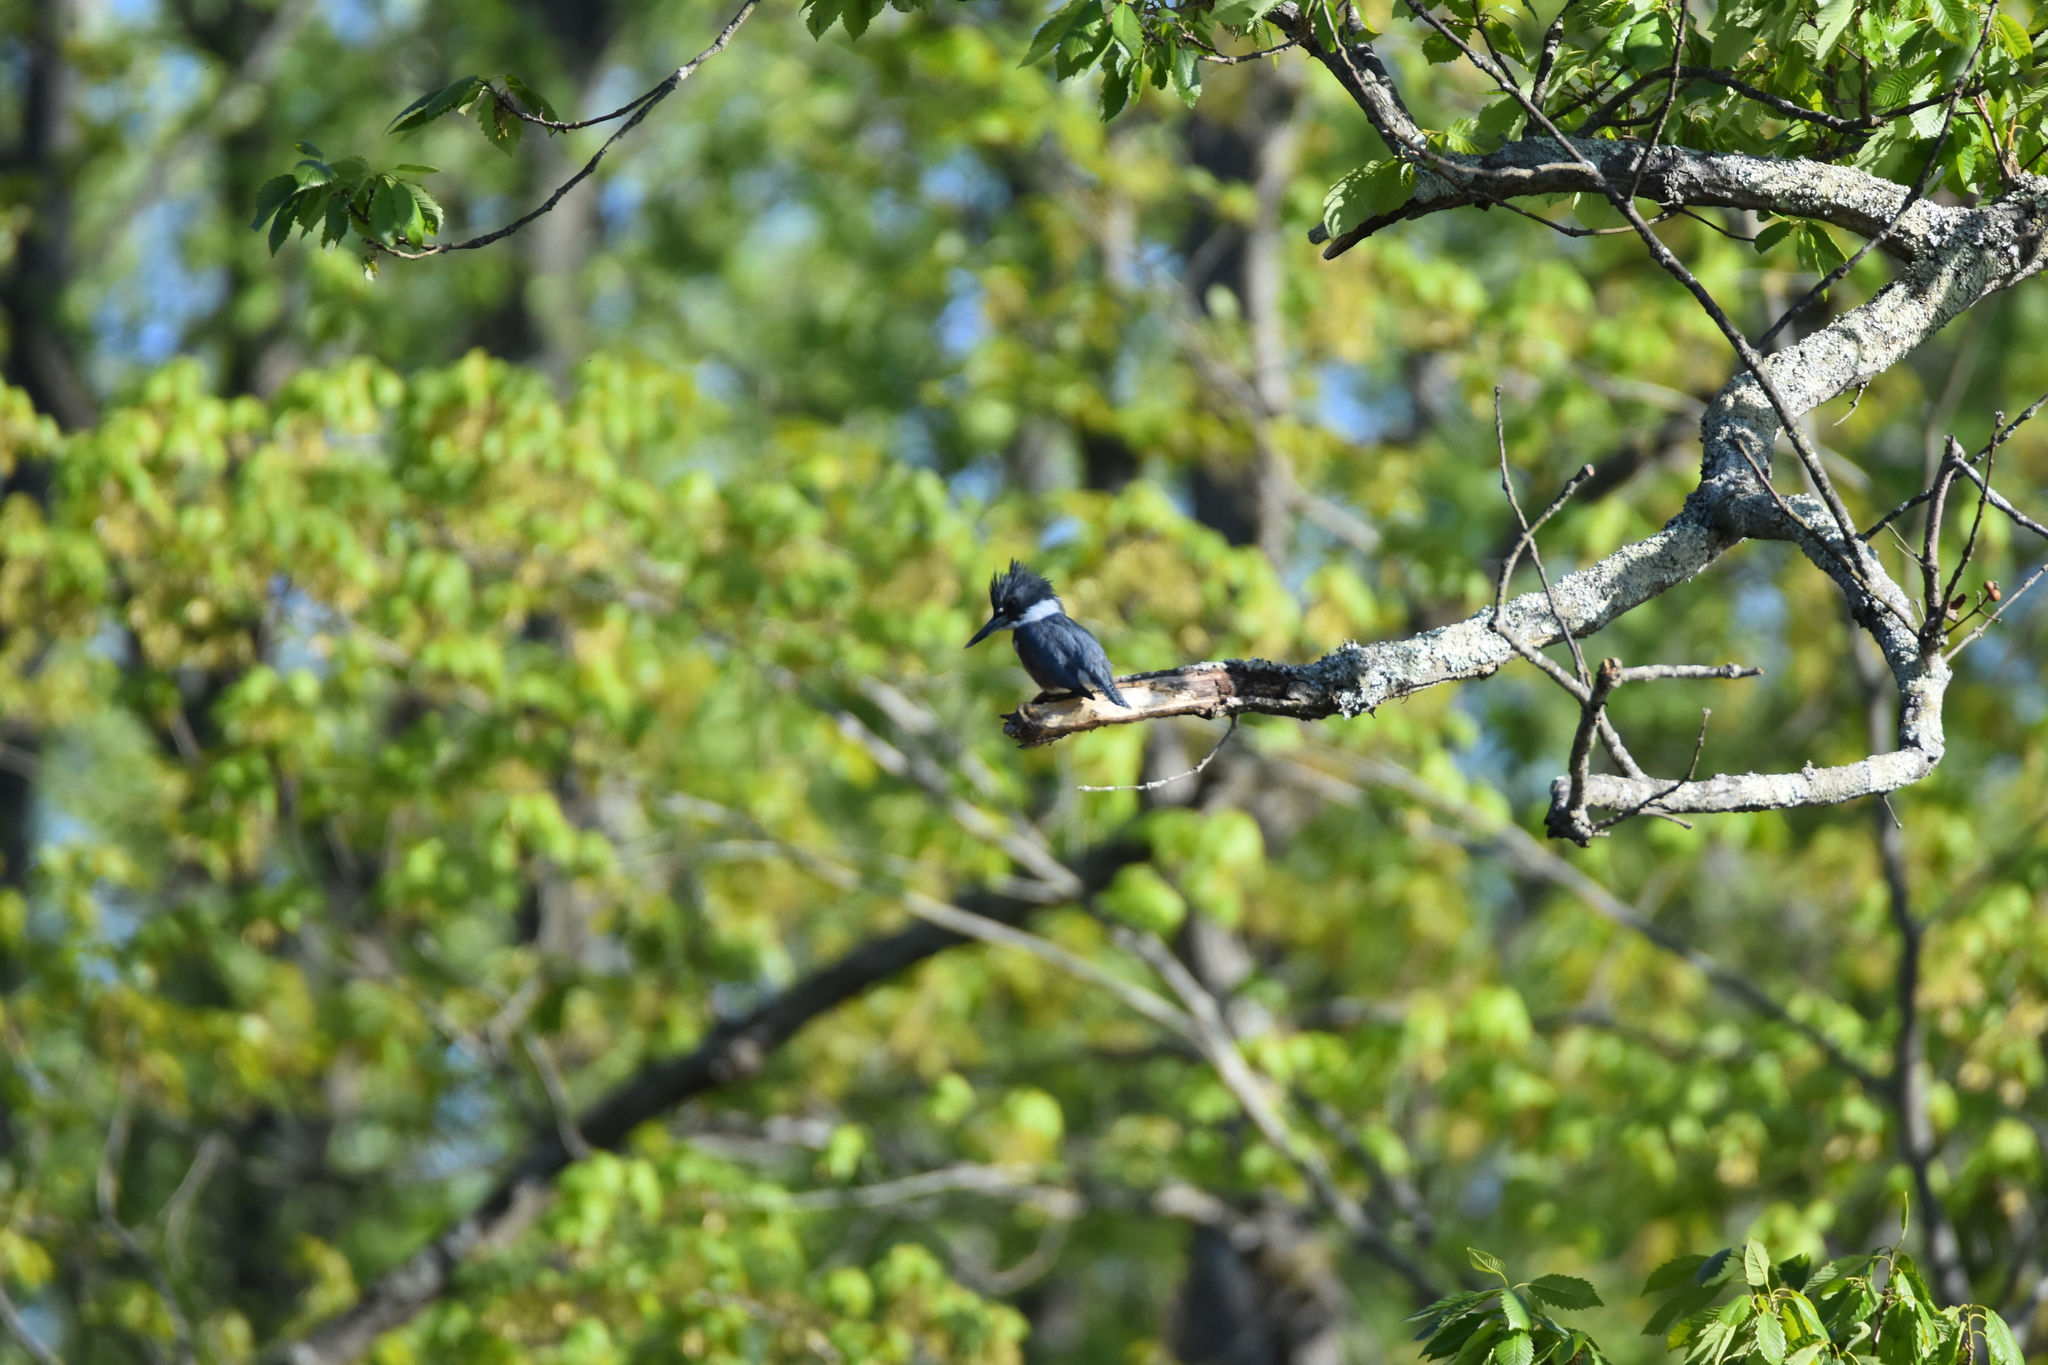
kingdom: Animalia
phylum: Chordata
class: Aves
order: Coraciiformes
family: Alcedinidae
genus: Megaceryle
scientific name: Megaceryle alcyon
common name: Belted kingfisher
